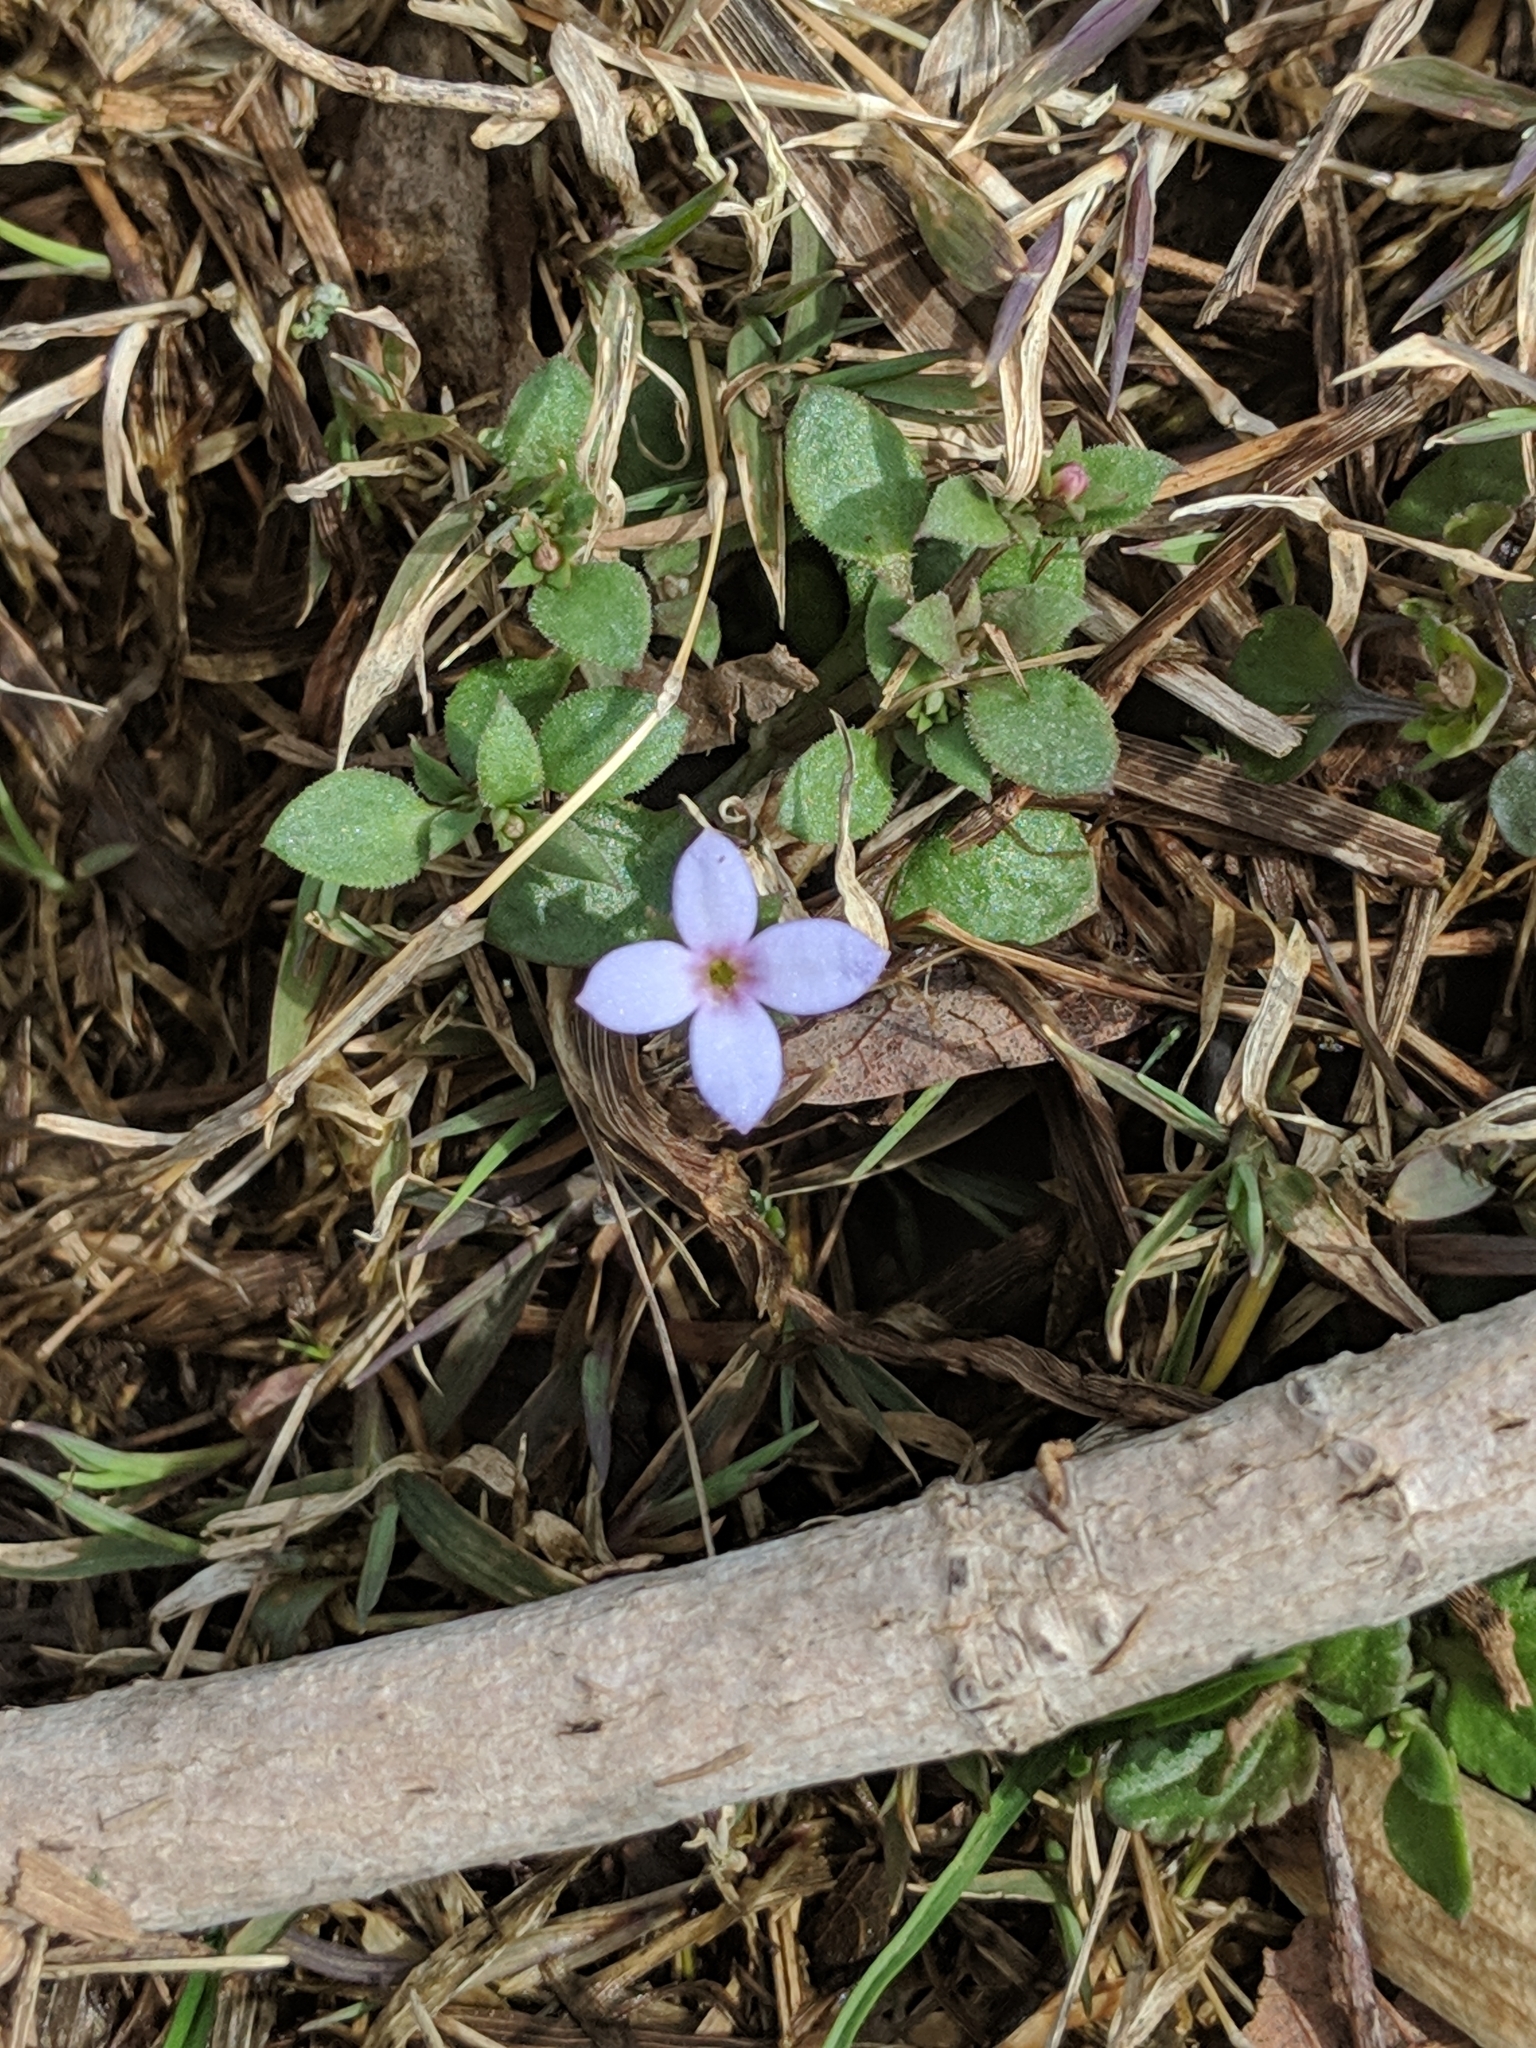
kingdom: Plantae
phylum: Tracheophyta
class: Magnoliopsida
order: Gentianales
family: Rubiaceae
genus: Houstonia
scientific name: Houstonia pusilla
